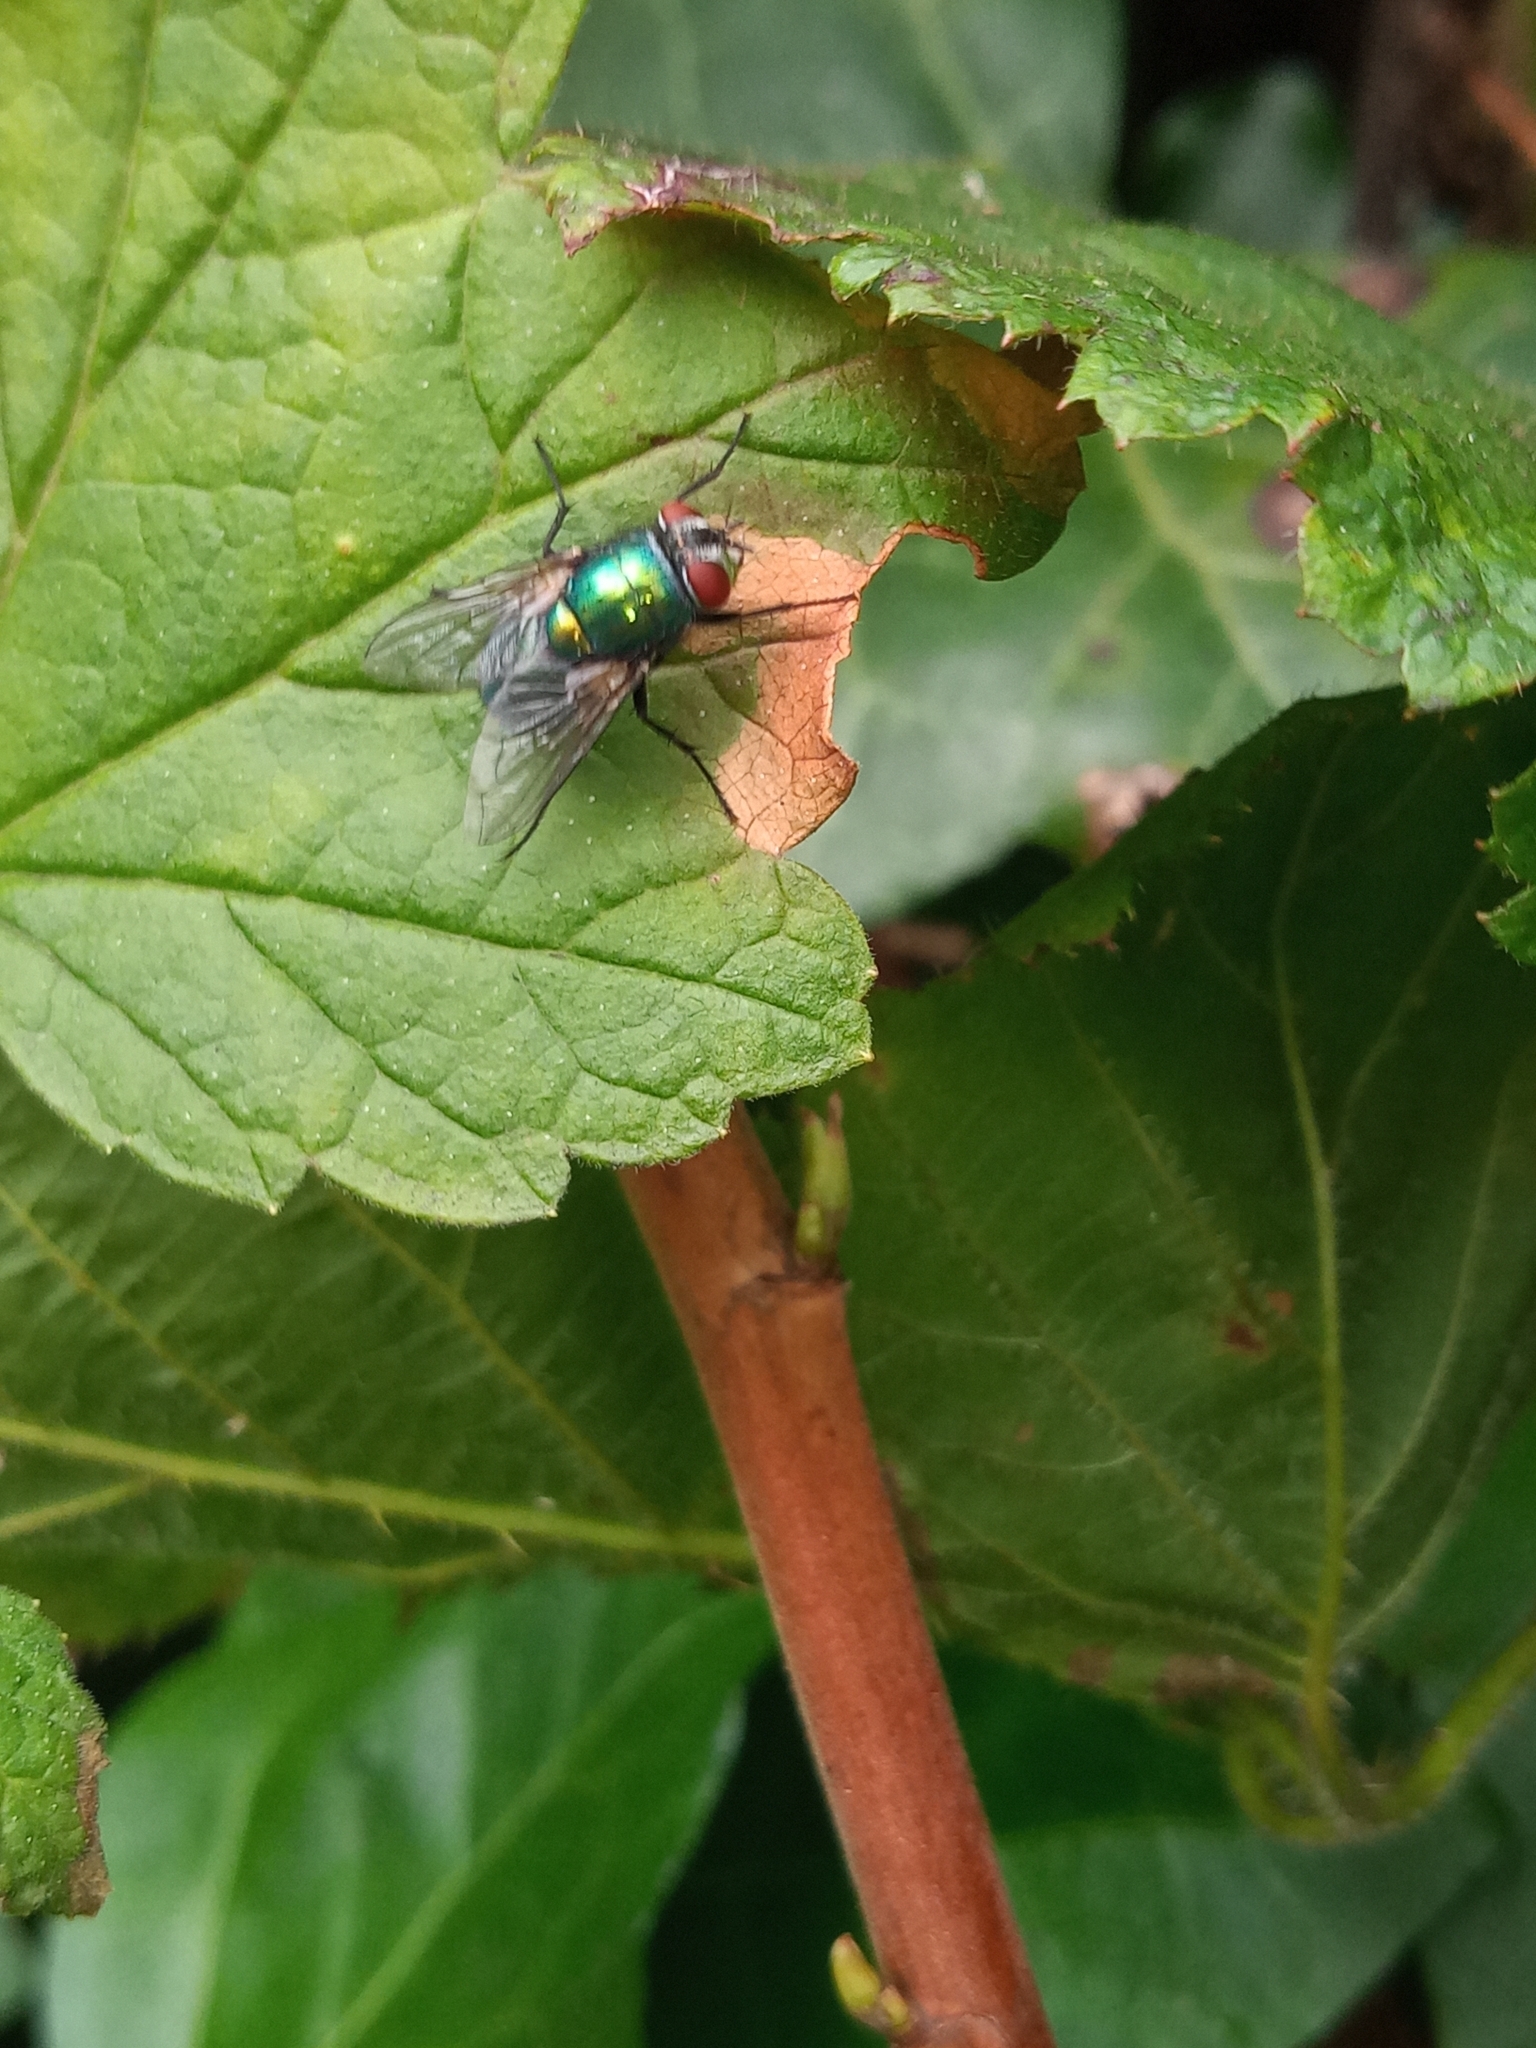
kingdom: Animalia
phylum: Arthropoda
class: Insecta
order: Diptera
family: Calliphoridae
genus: Lucilia
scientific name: Lucilia
